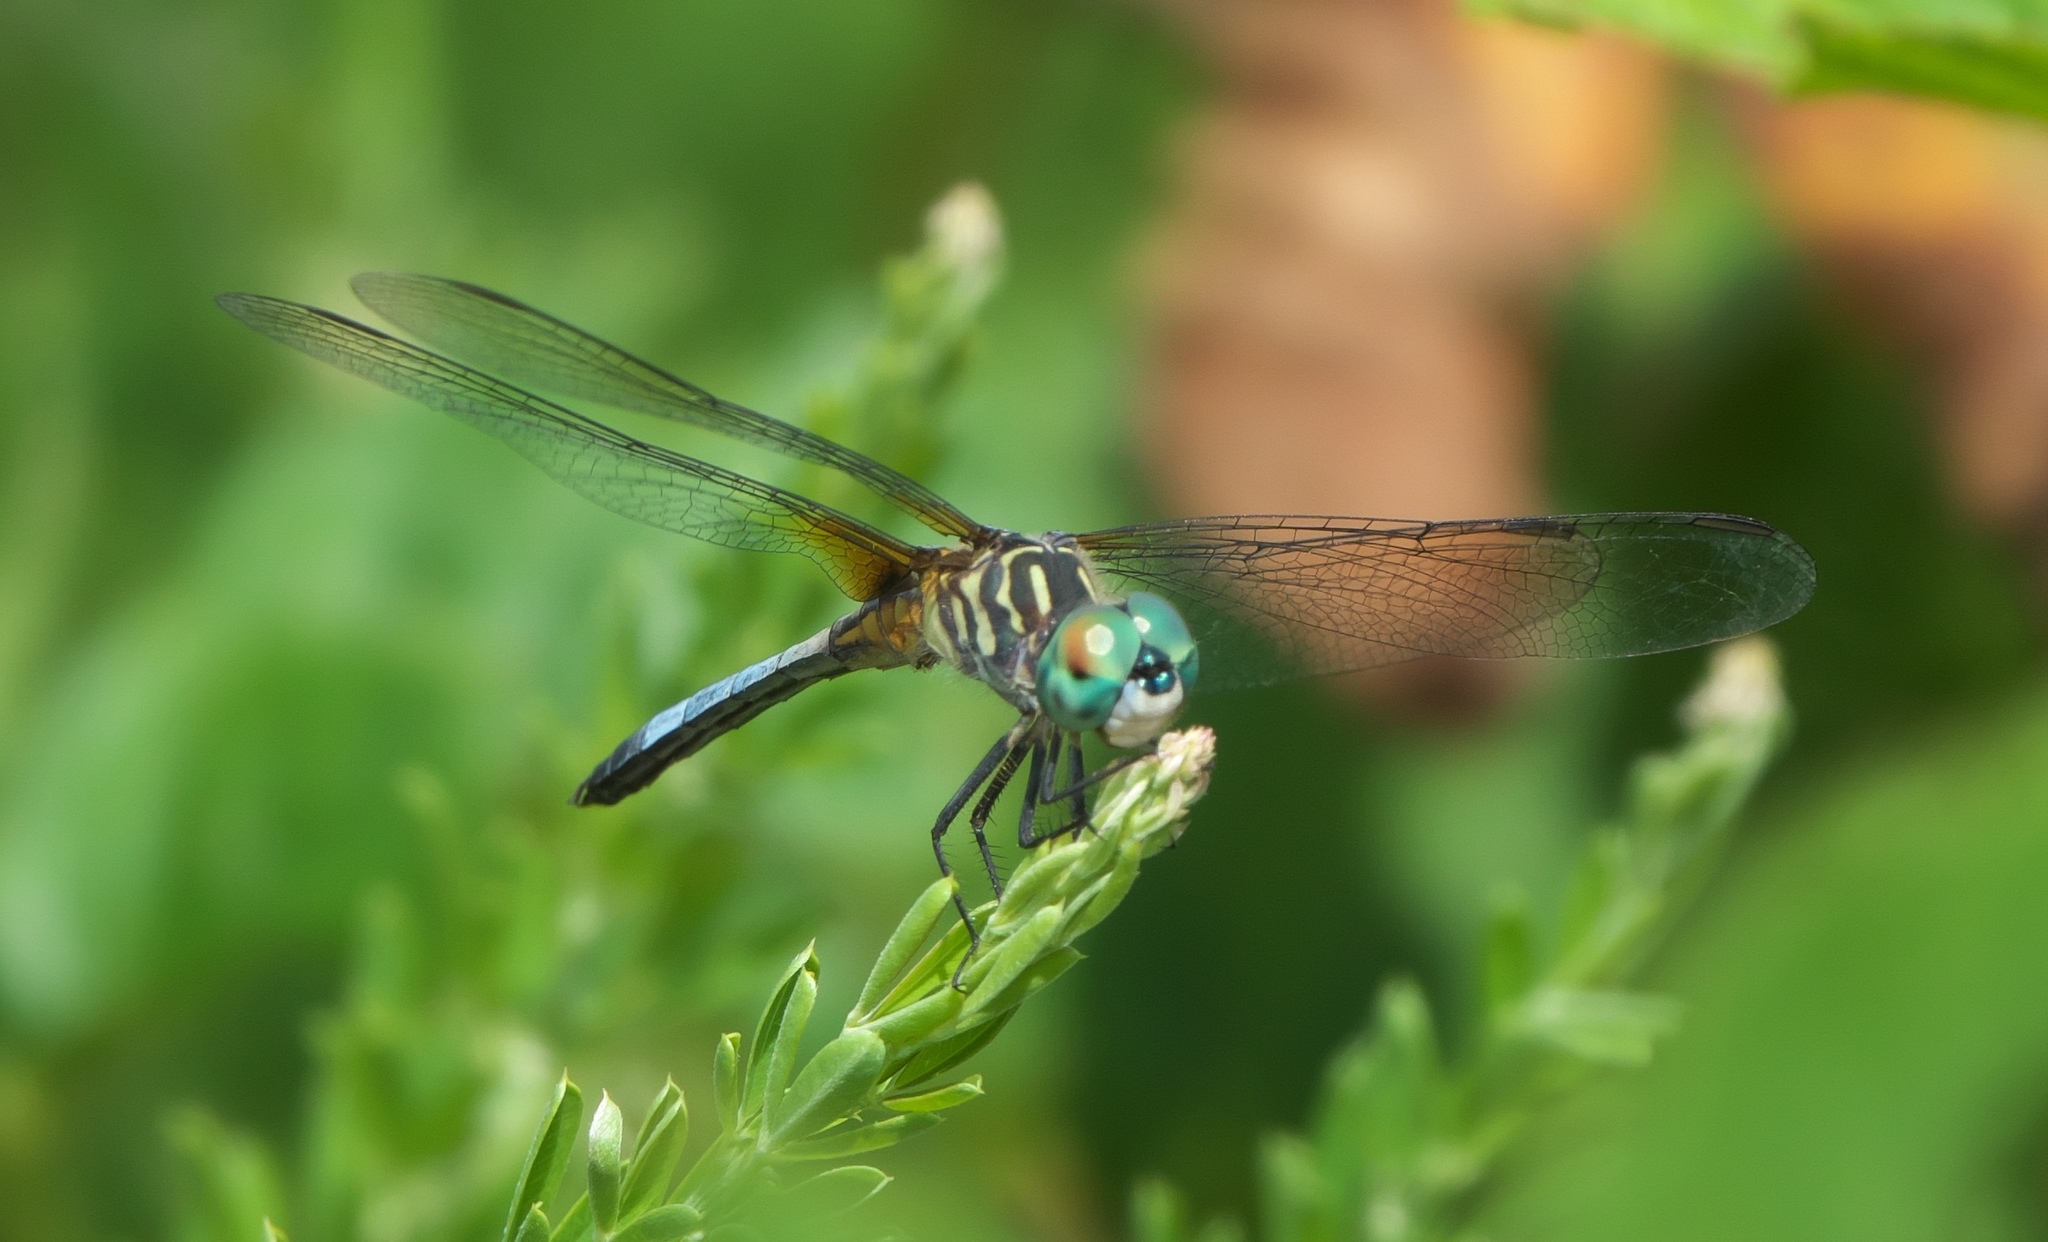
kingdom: Animalia
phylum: Arthropoda
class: Insecta
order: Odonata
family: Libellulidae
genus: Pachydiplax
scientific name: Pachydiplax longipennis
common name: Blue dasher
